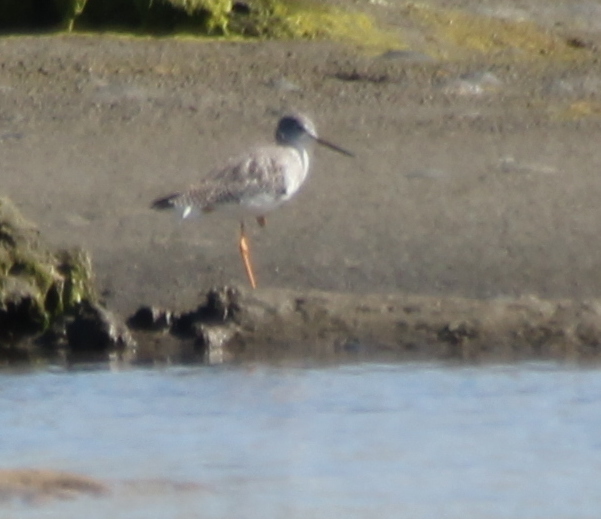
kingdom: Animalia
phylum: Chordata
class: Aves
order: Charadriiformes
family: Scolopacidae
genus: Tringa
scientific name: Tringa melanoleuca
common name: Greater yellowlegs
